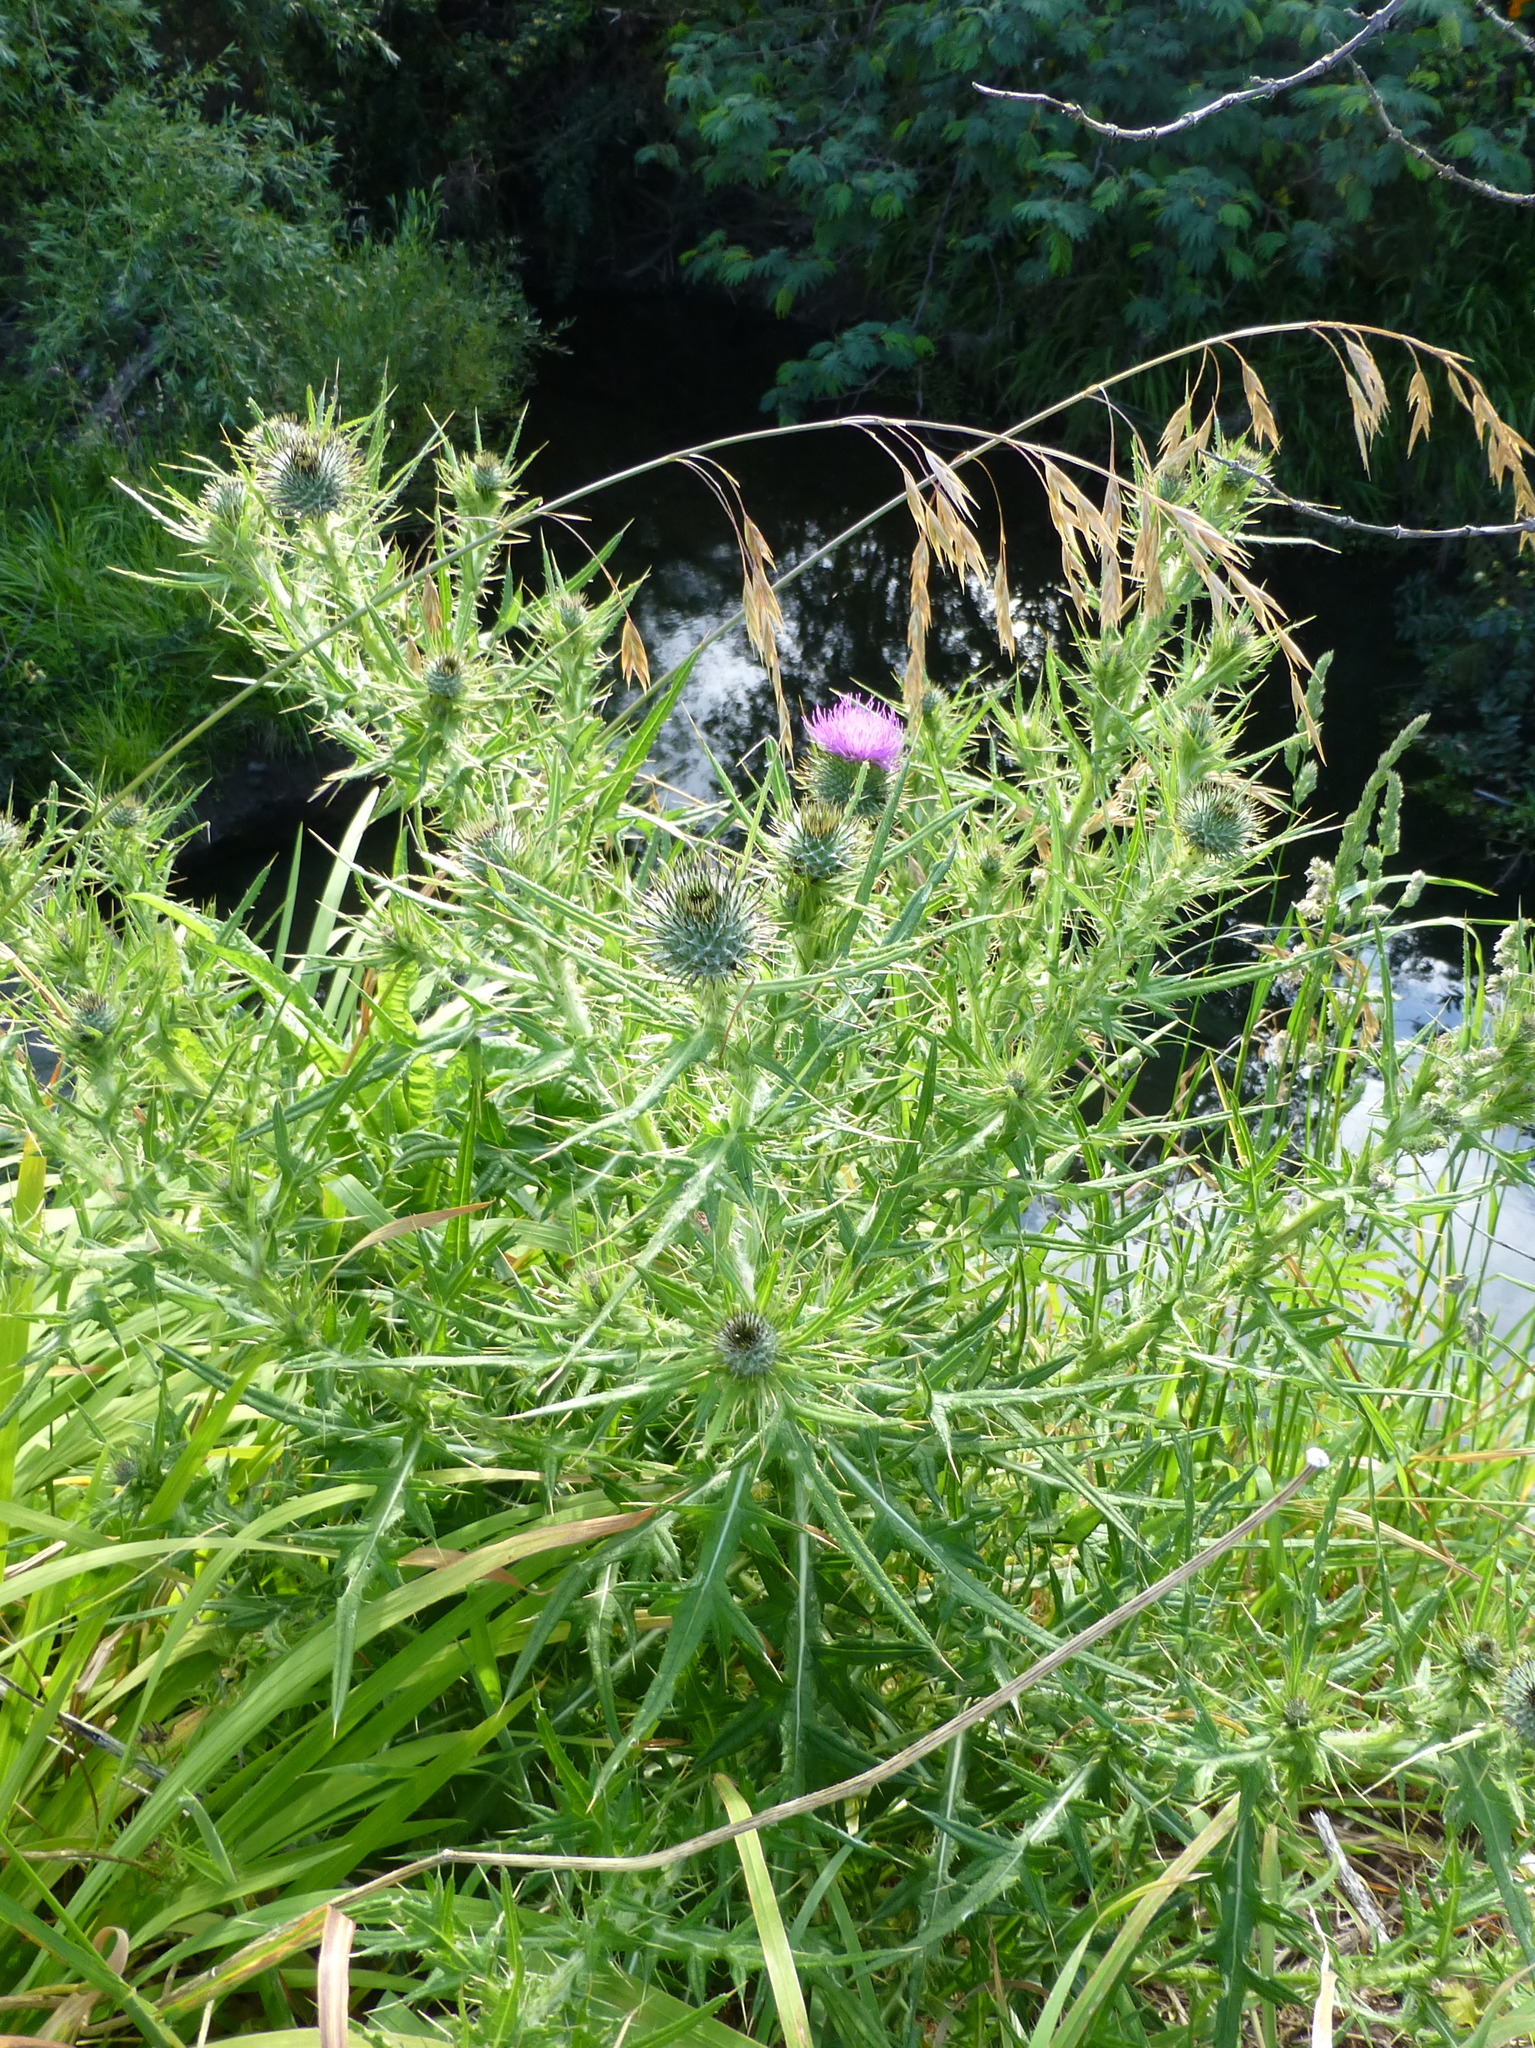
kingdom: Plantae
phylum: Tracheophyta
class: Magnoliopsida
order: Asterales
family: Asteraceae
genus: Cirsium
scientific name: Cirsium vulgare
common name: Bull thistle
